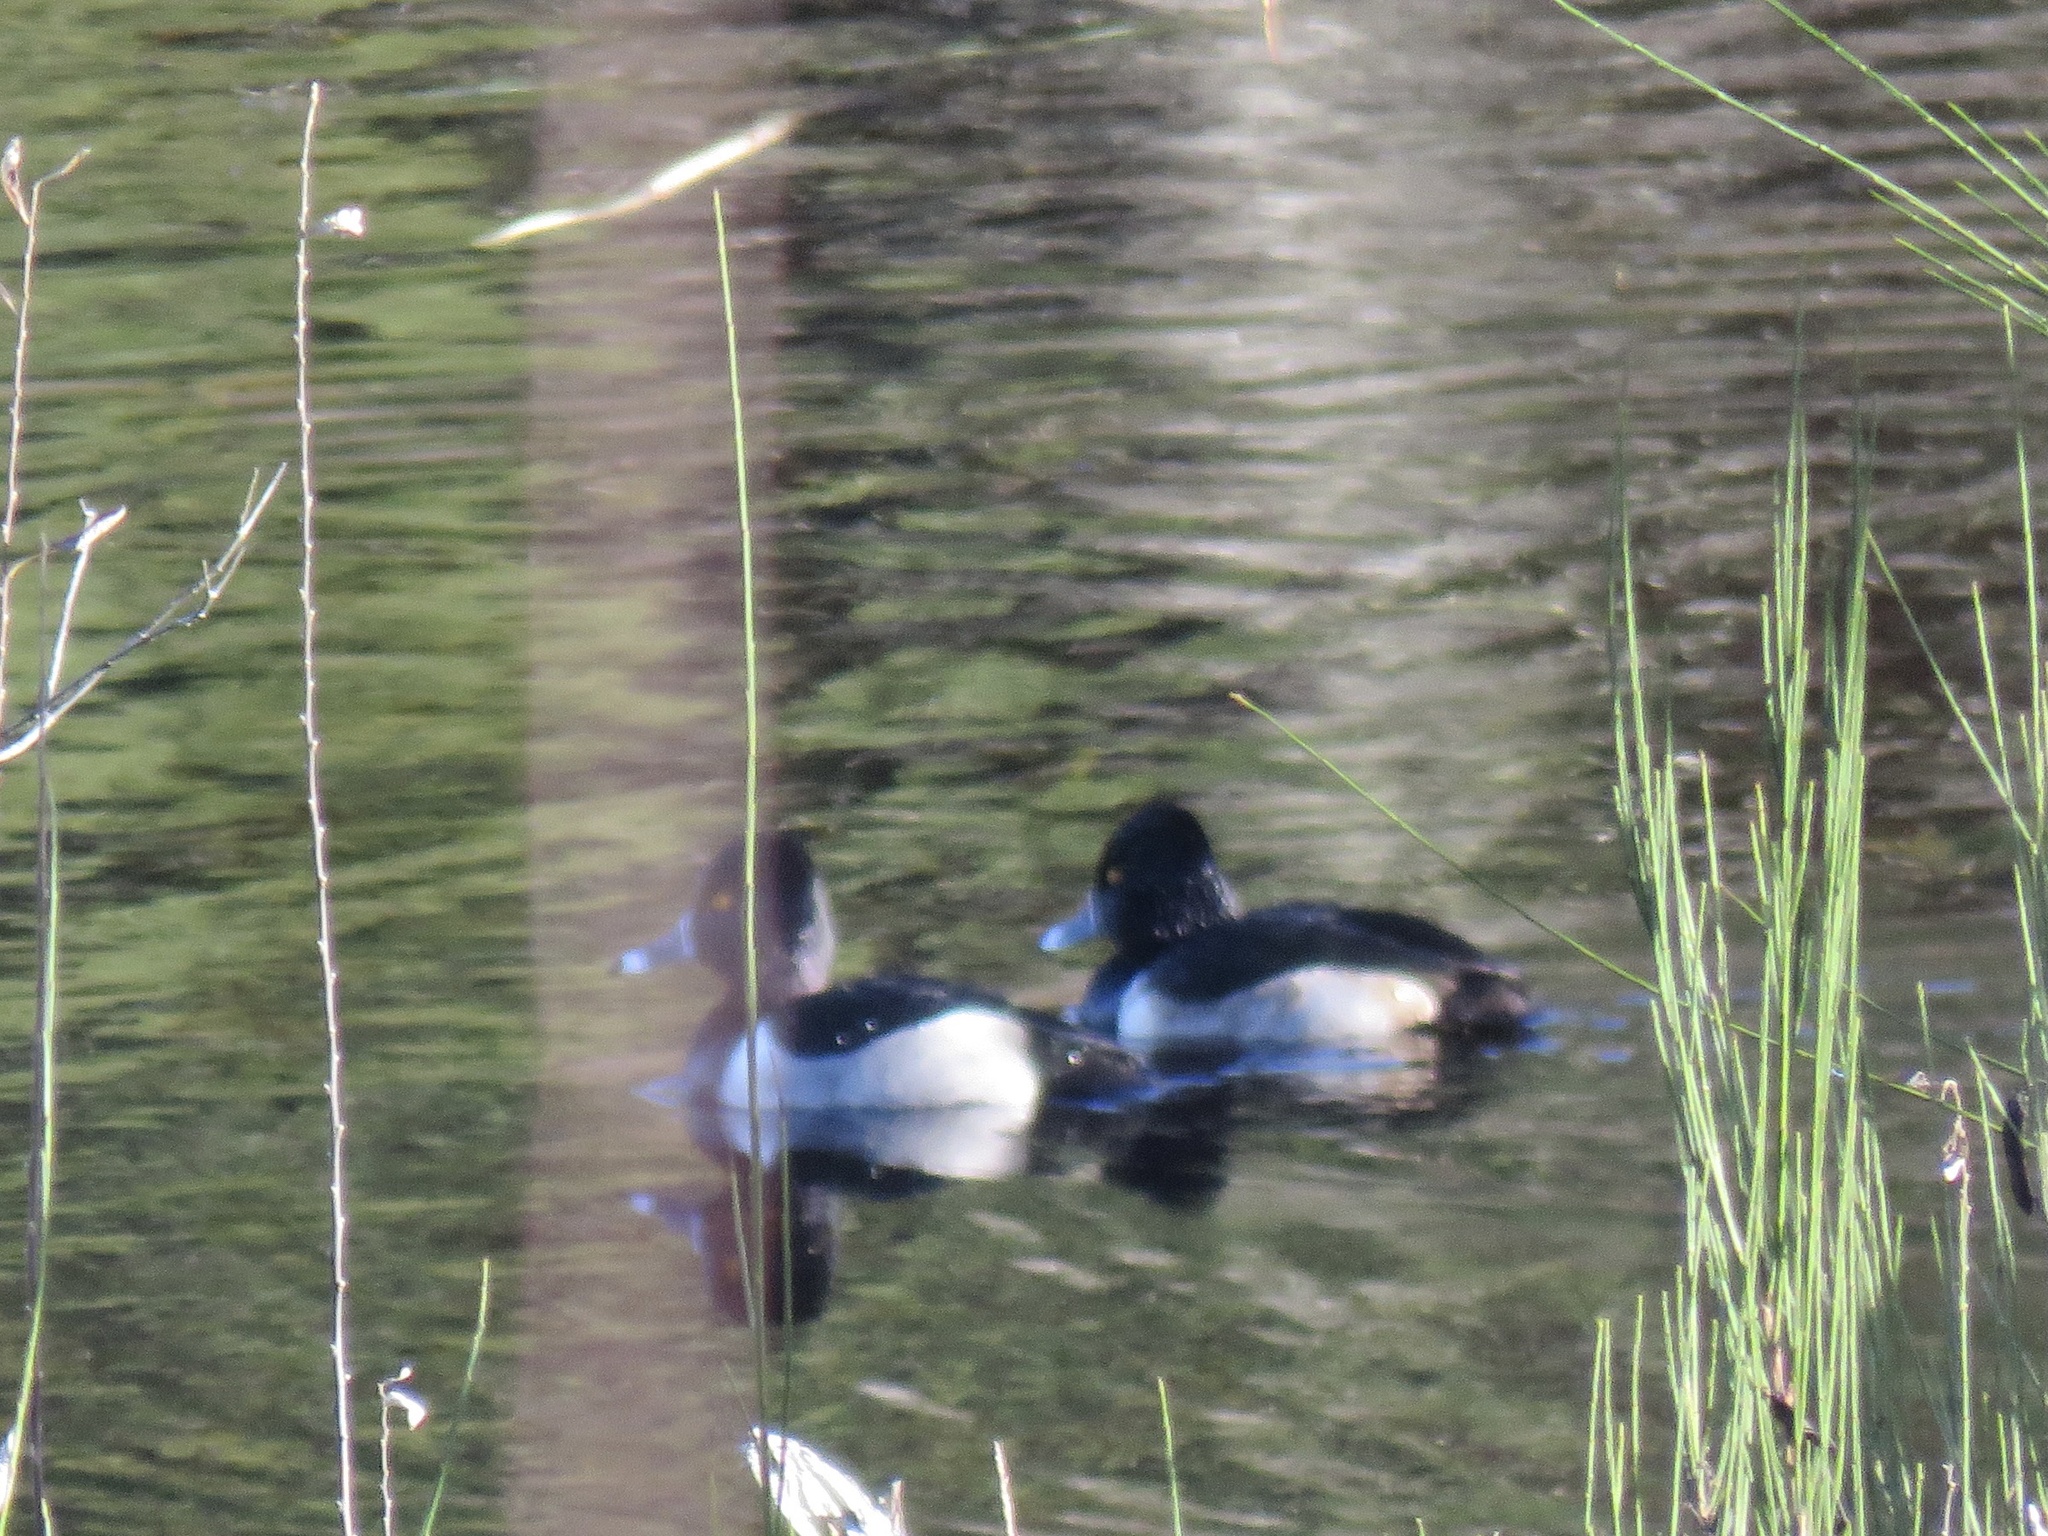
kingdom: Animalia
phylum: Chordata
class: Aves
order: Anseriformes
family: Anatidae
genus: Aythya
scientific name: Aythya collaris
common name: Ring-necked duck
